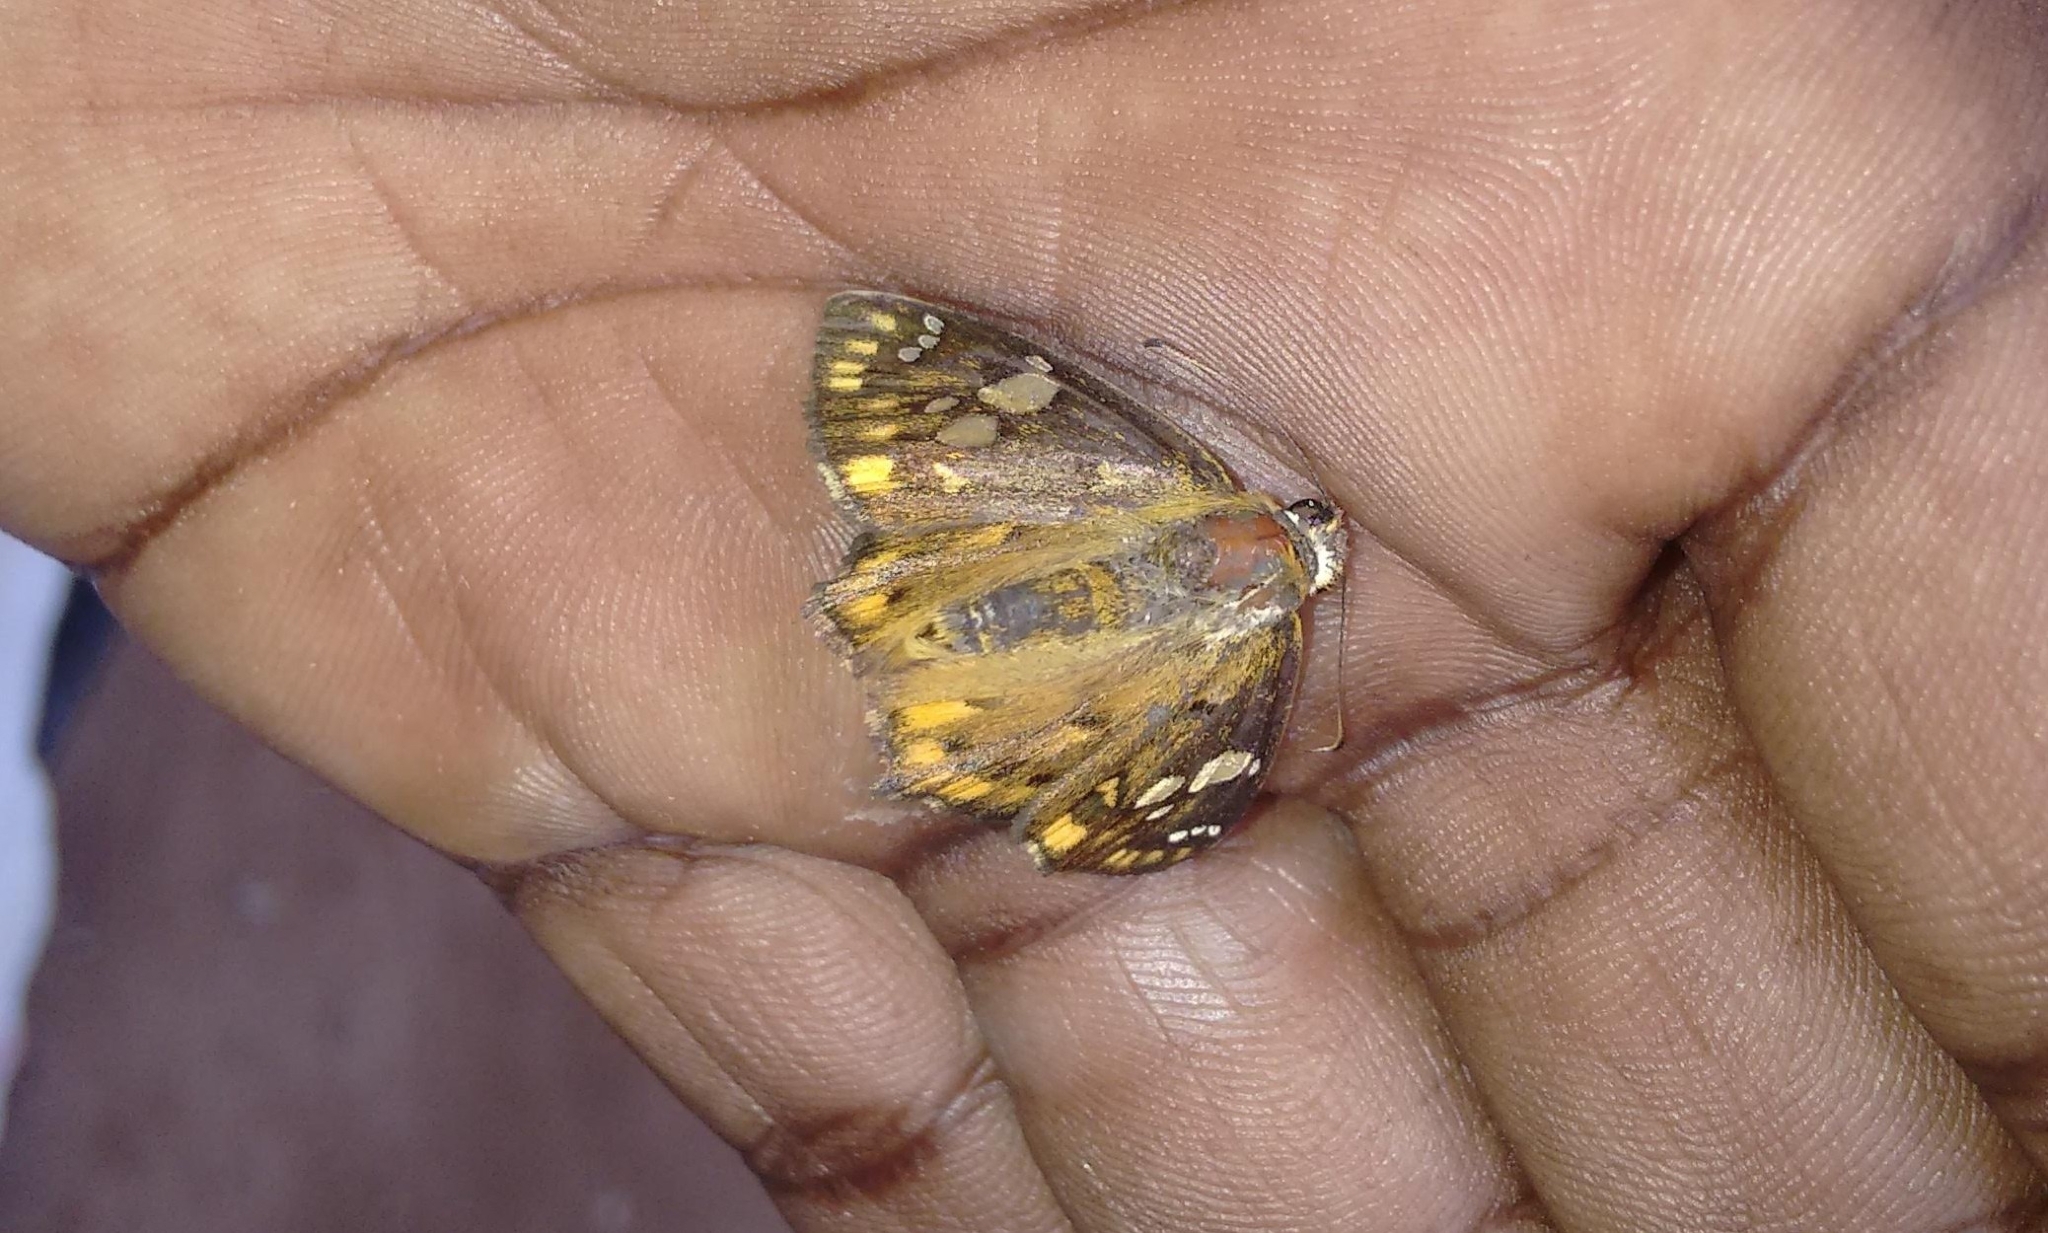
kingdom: Animalia
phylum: Arthropoda
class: Insecta
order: Lepidoptera
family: Hesperiidae
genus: Coladenia
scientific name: Coladenia
